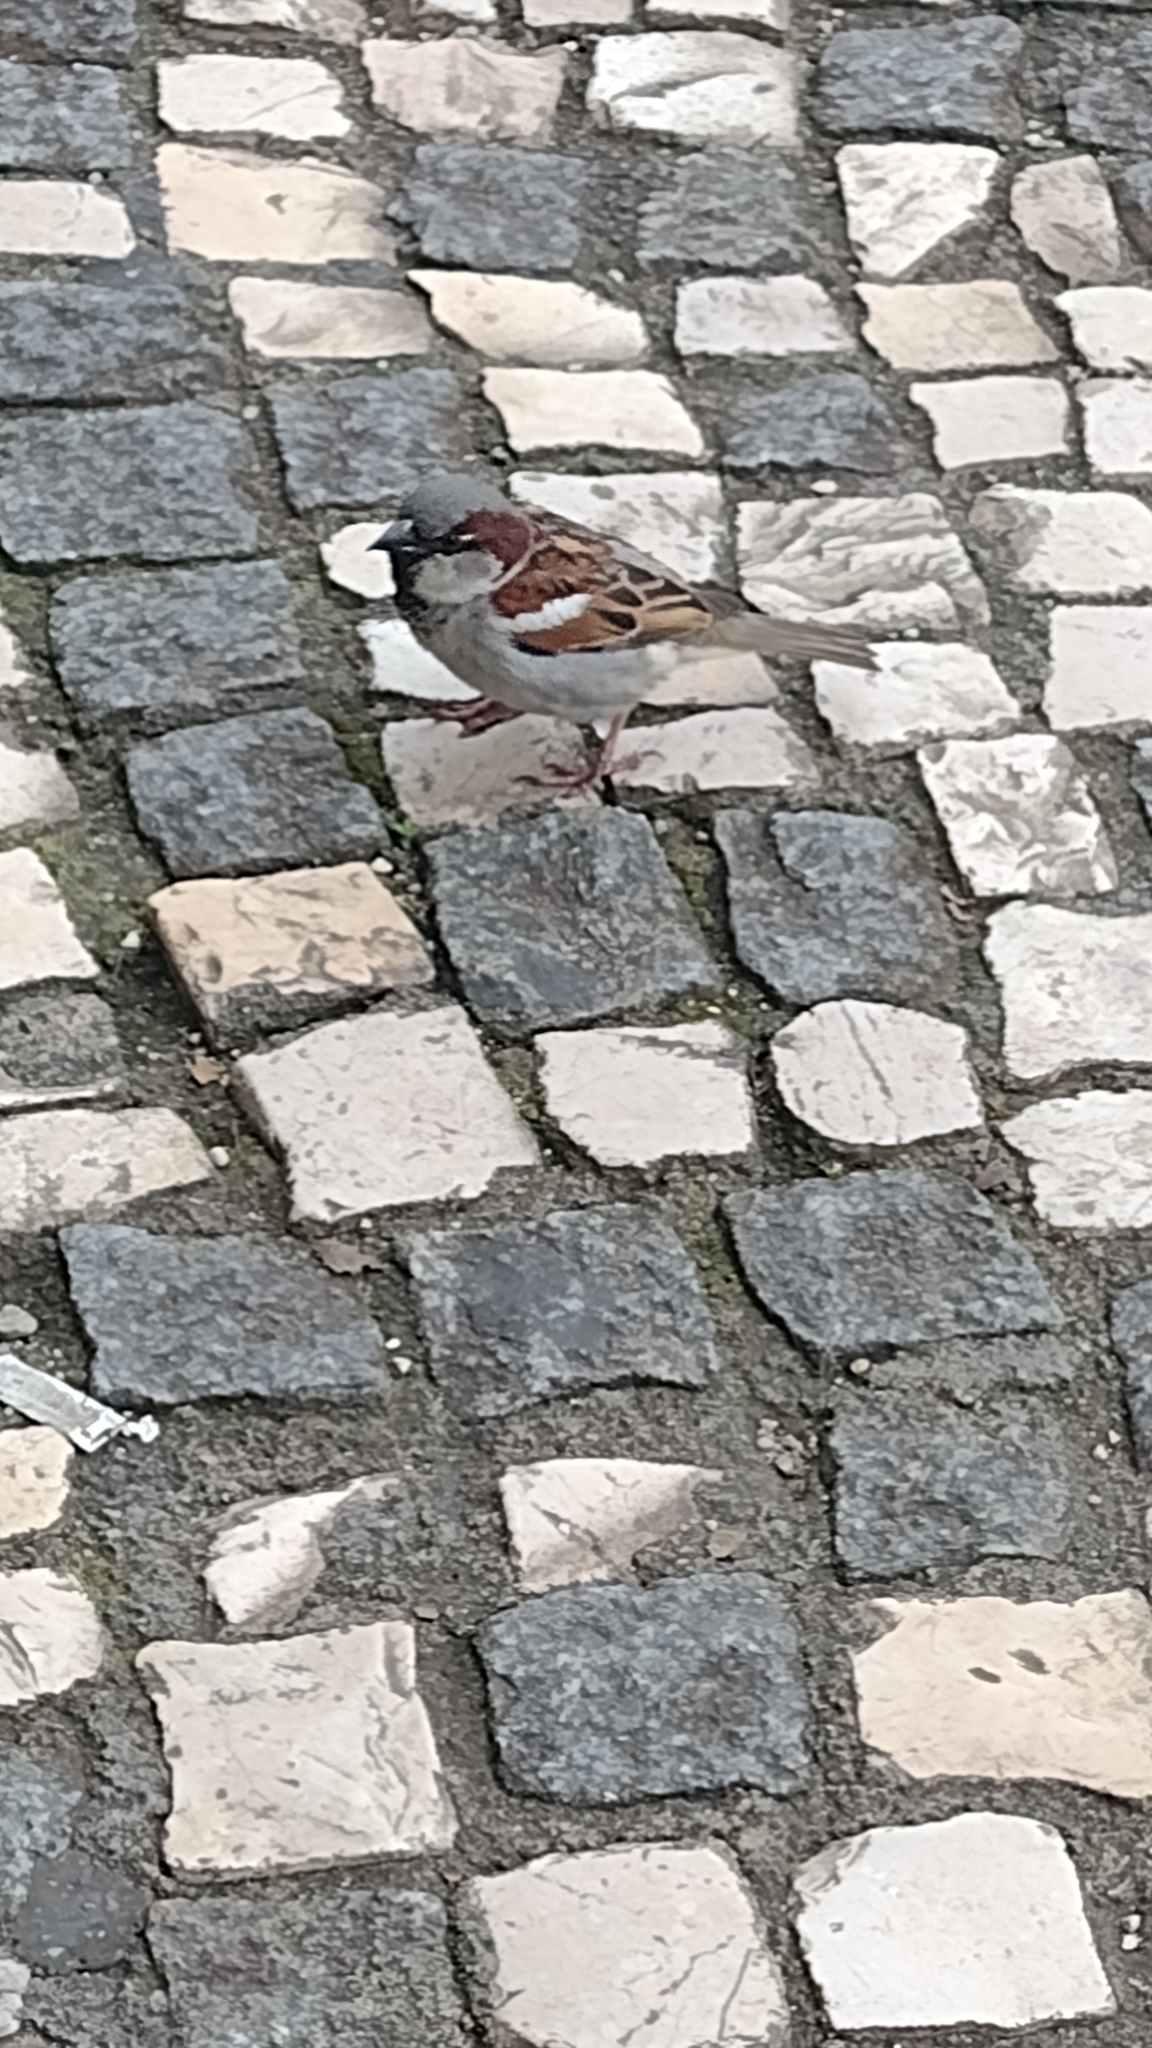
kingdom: Animalia
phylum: Chordata
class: Aves
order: Passeriformes
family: Passeridae
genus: Passer
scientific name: Passer domesticus
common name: House sparrow
